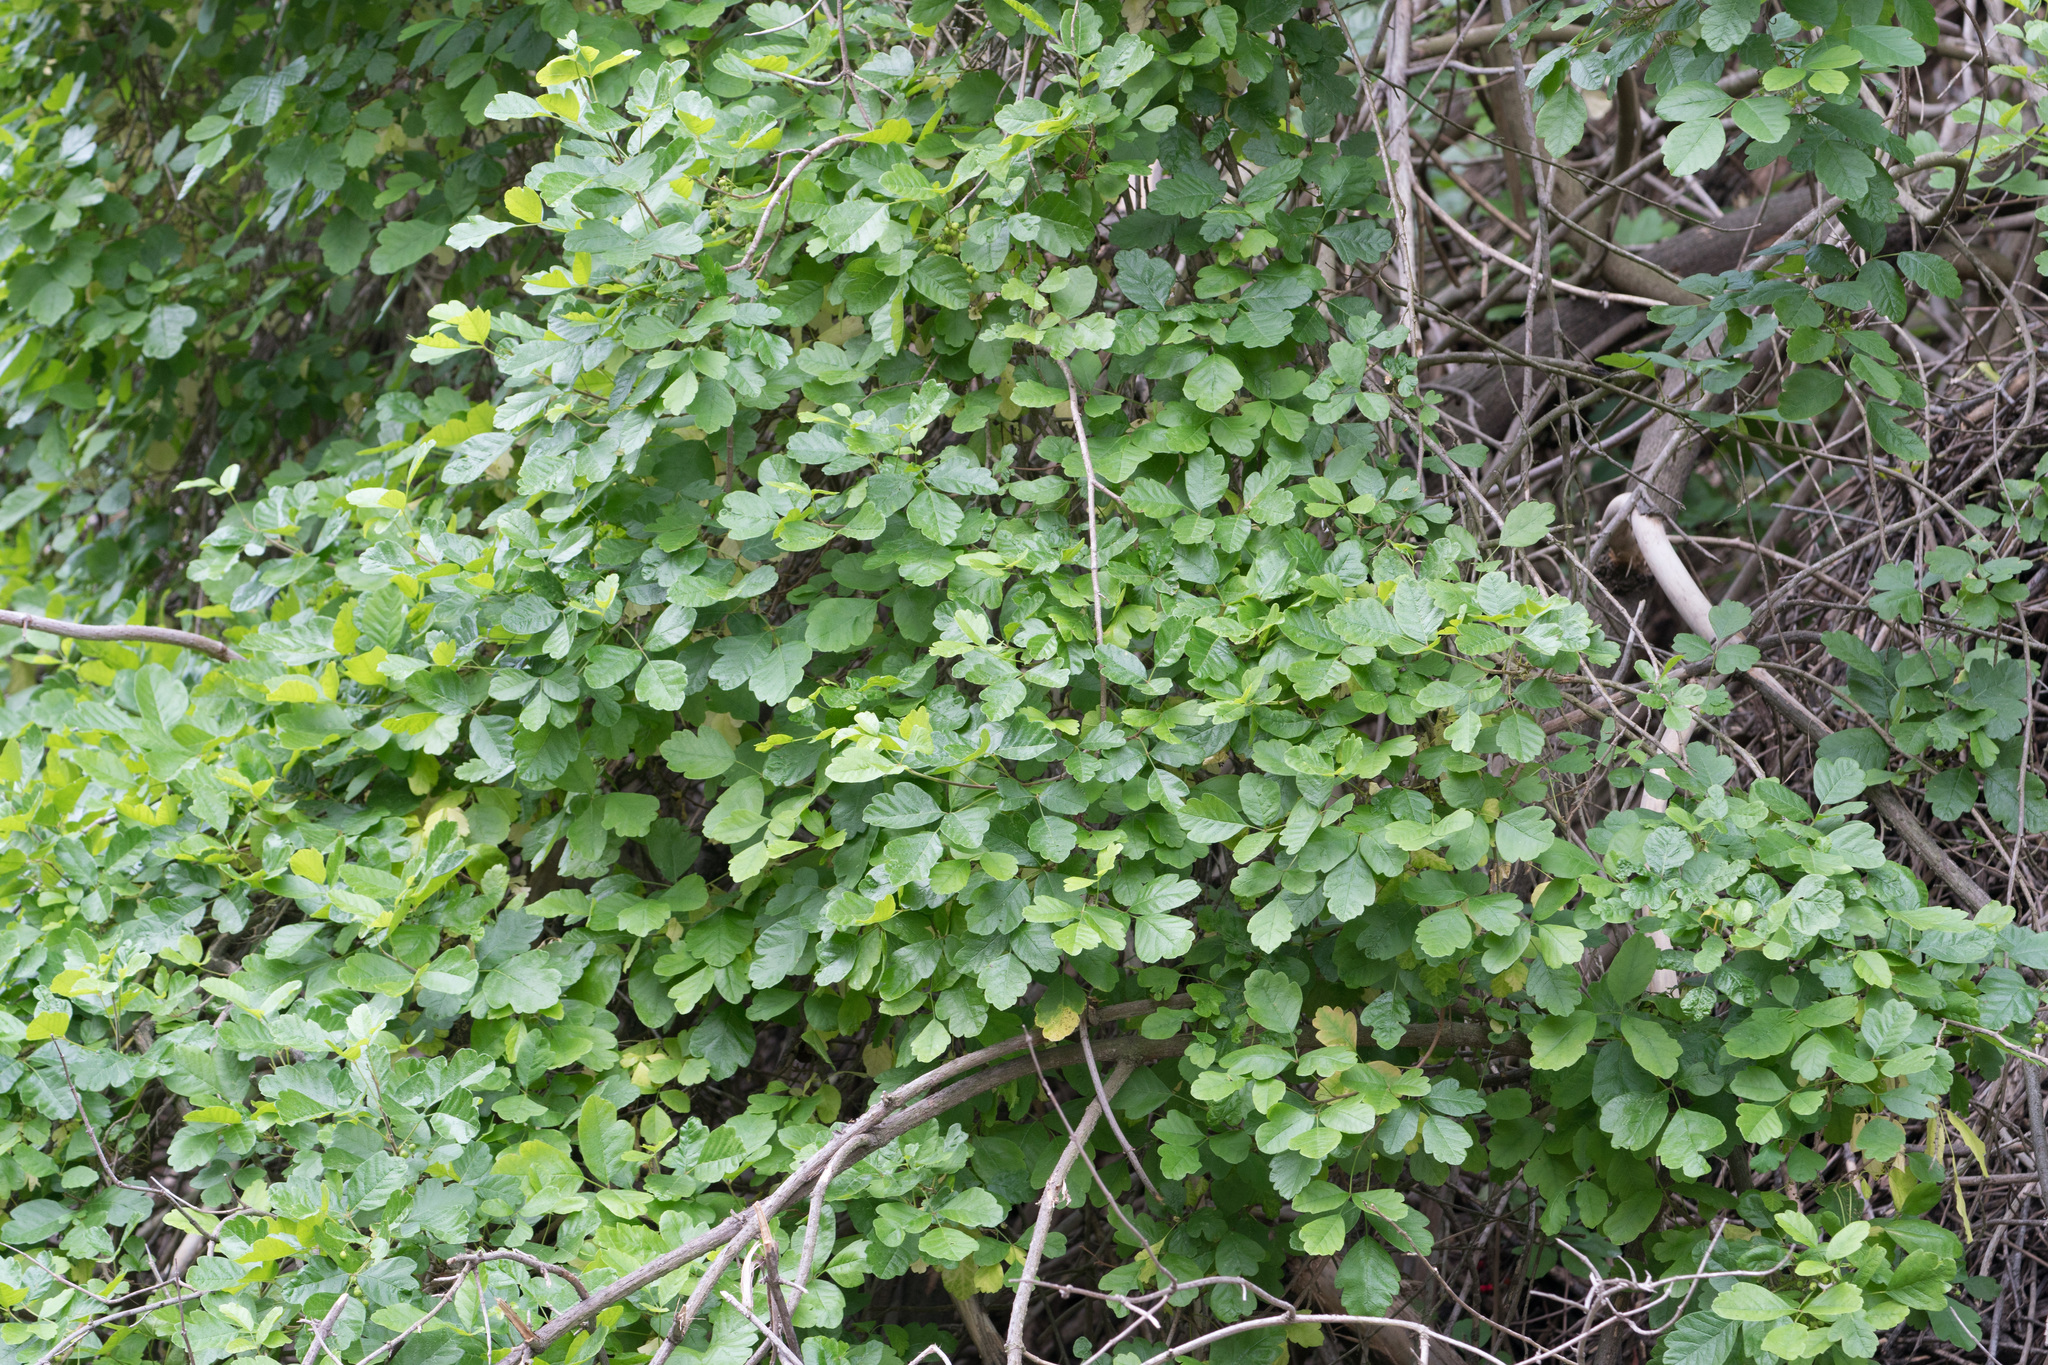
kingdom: Plantae
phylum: Tracheophyta
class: Magnoliopsida
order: Sapindales
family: Anacardiaceae
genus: Toxicodendron
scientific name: Toxicodendron diversilobum
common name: Pacific poison-oak
